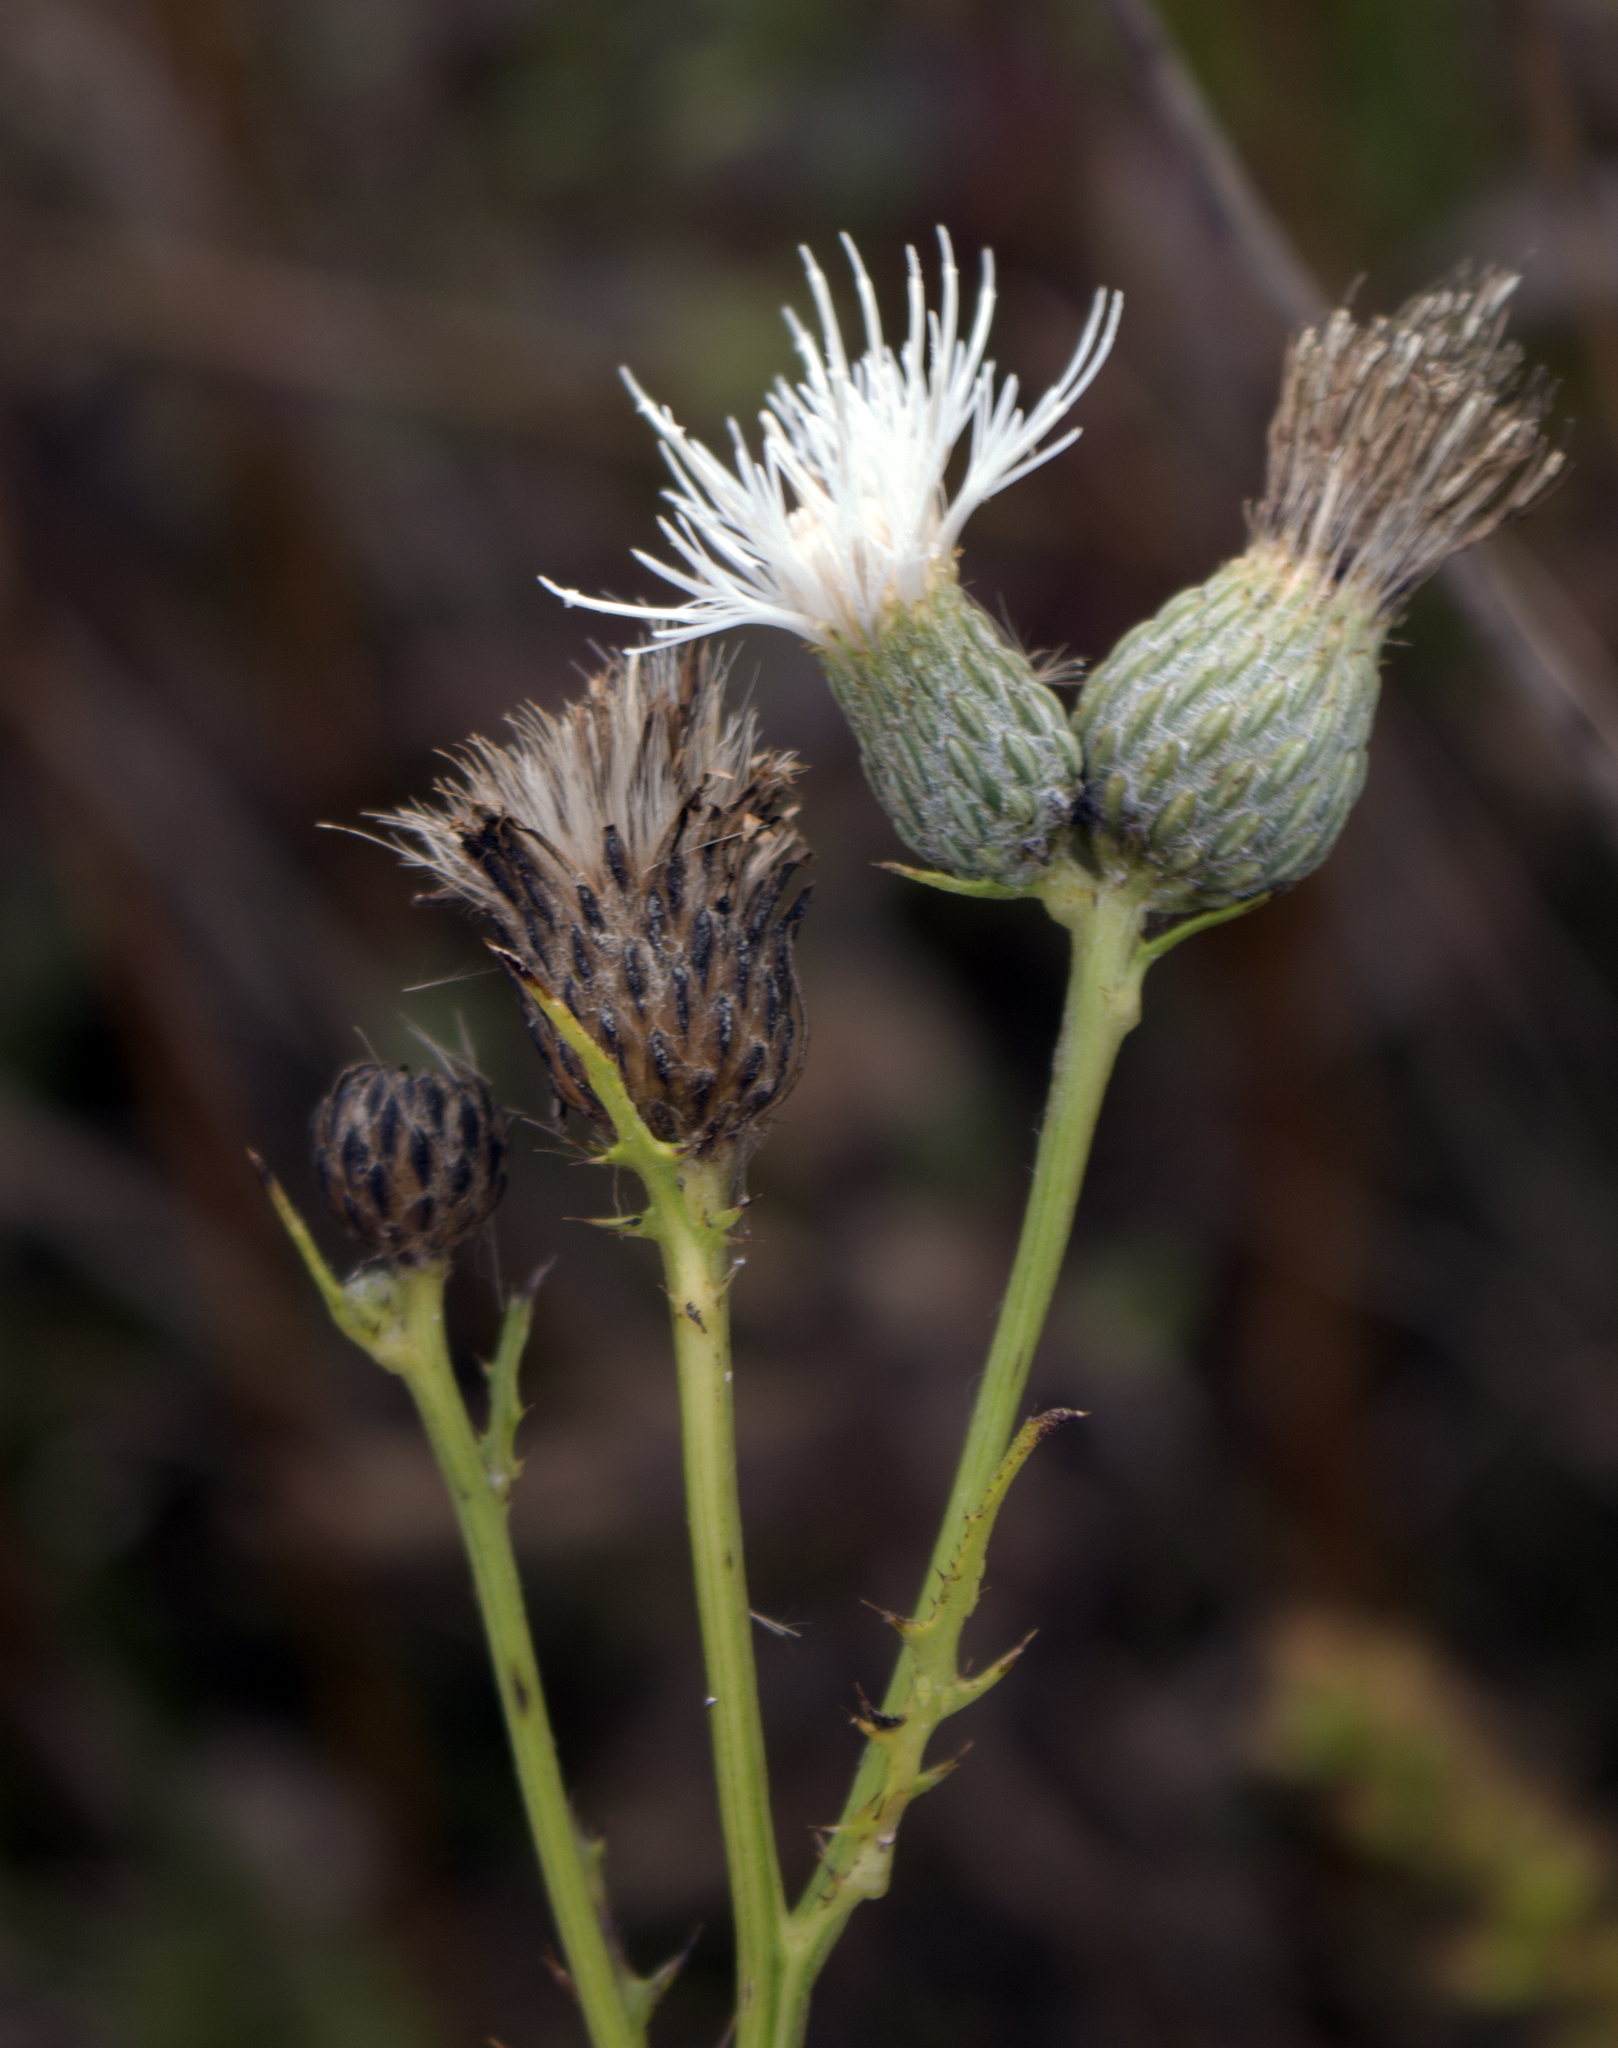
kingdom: Plantae
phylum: Tracheophyta
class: Magnoliopsida
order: Asterales
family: Asteraceae
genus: Cirsium
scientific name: Cirsium muticum
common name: Dunce-nettle
